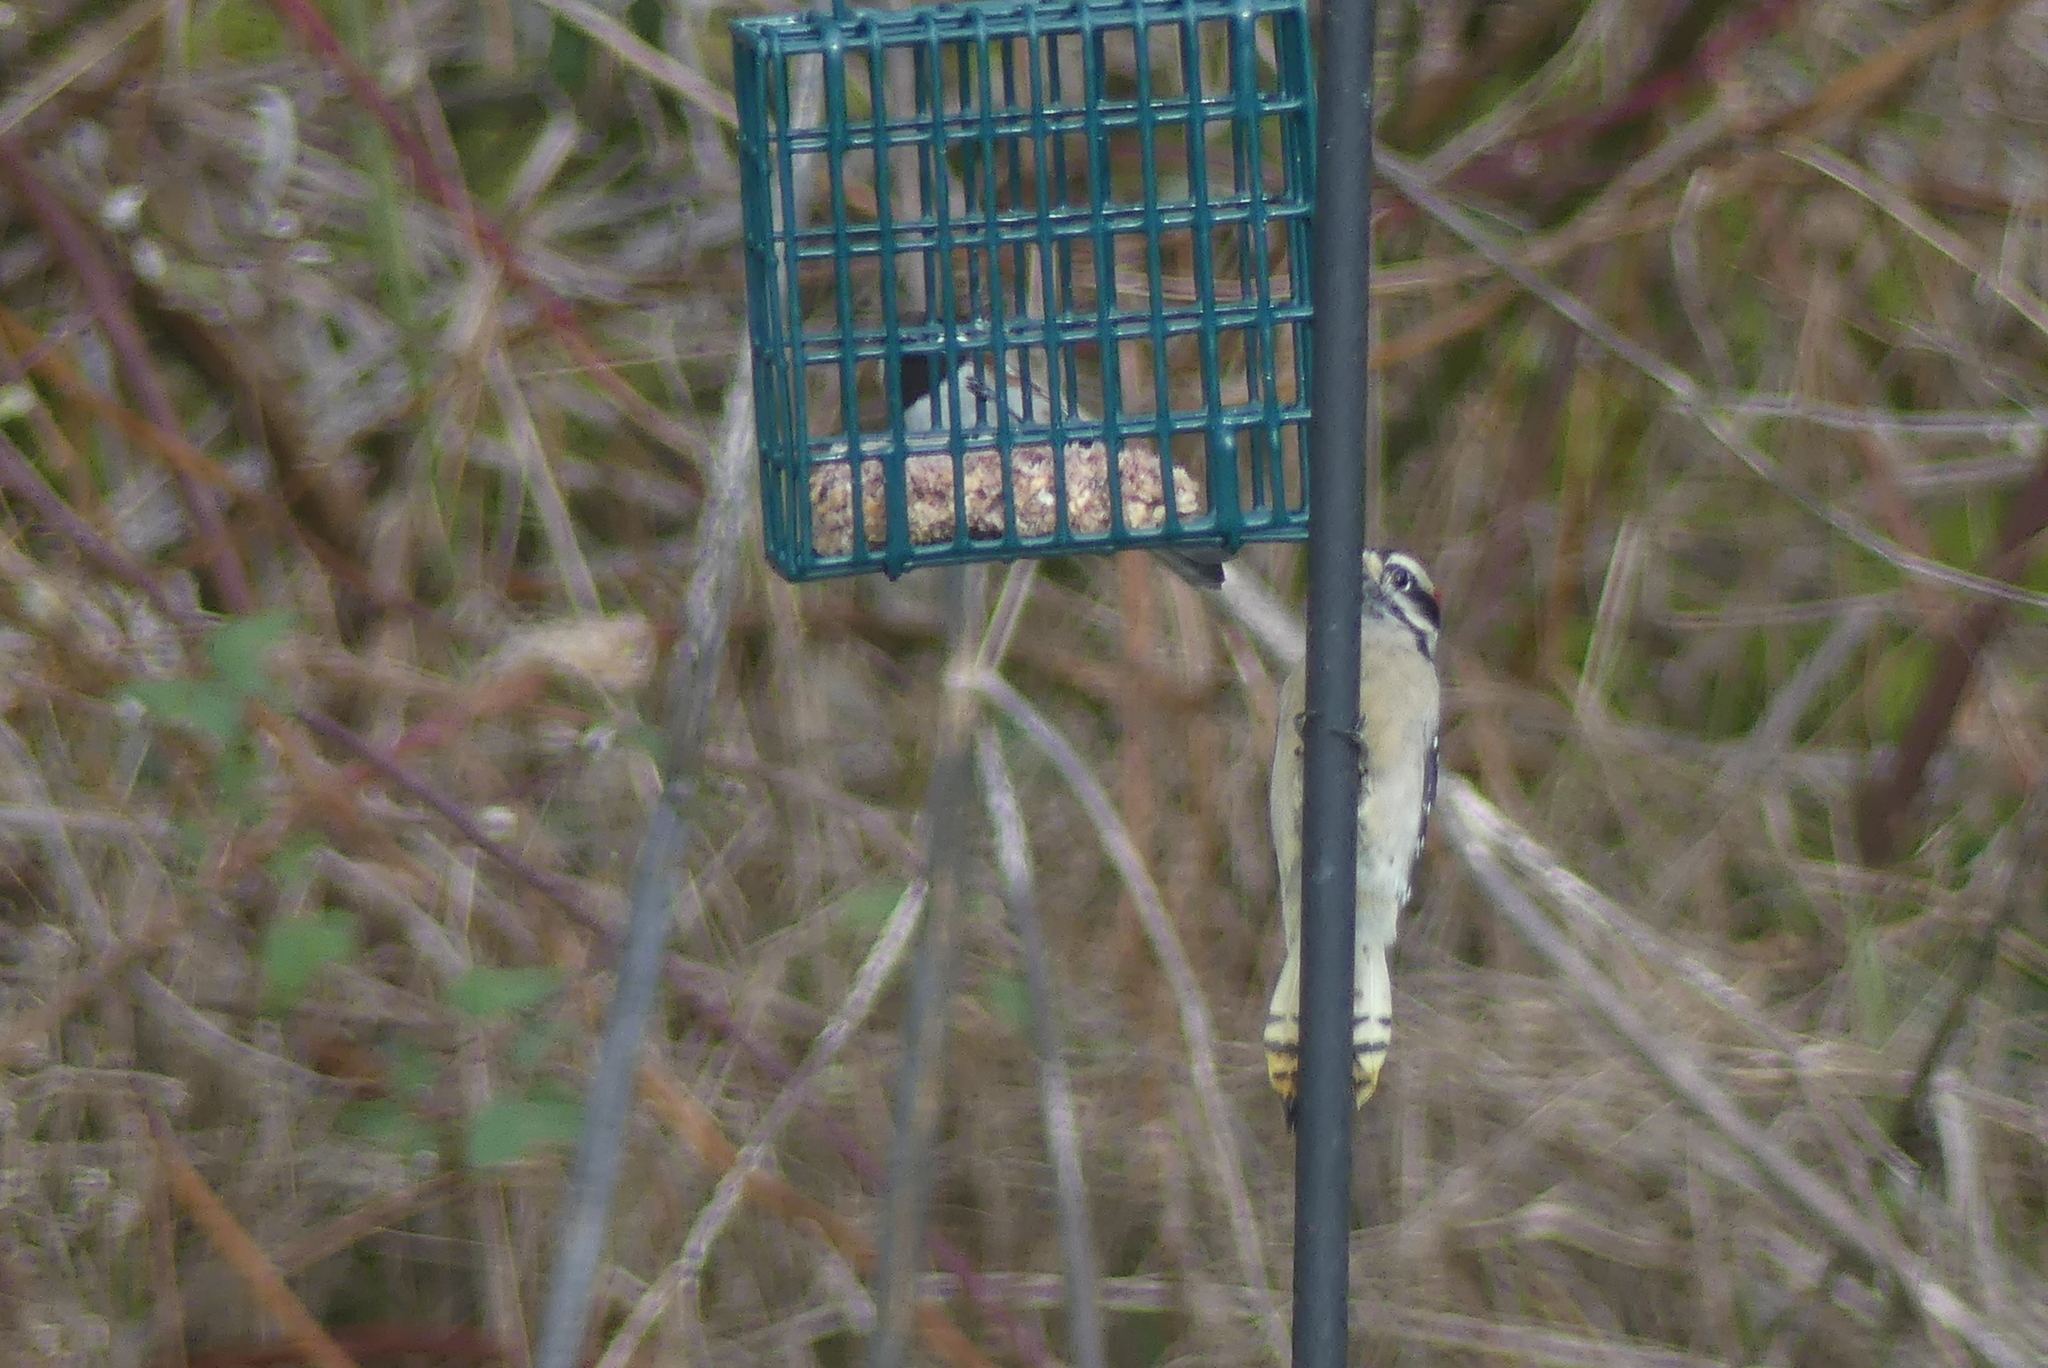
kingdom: Animalia
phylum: Chordata
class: Aves
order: Piciformes
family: Picidae
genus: Dryobates
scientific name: Dryobates pubescens
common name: Downy woodpecker
